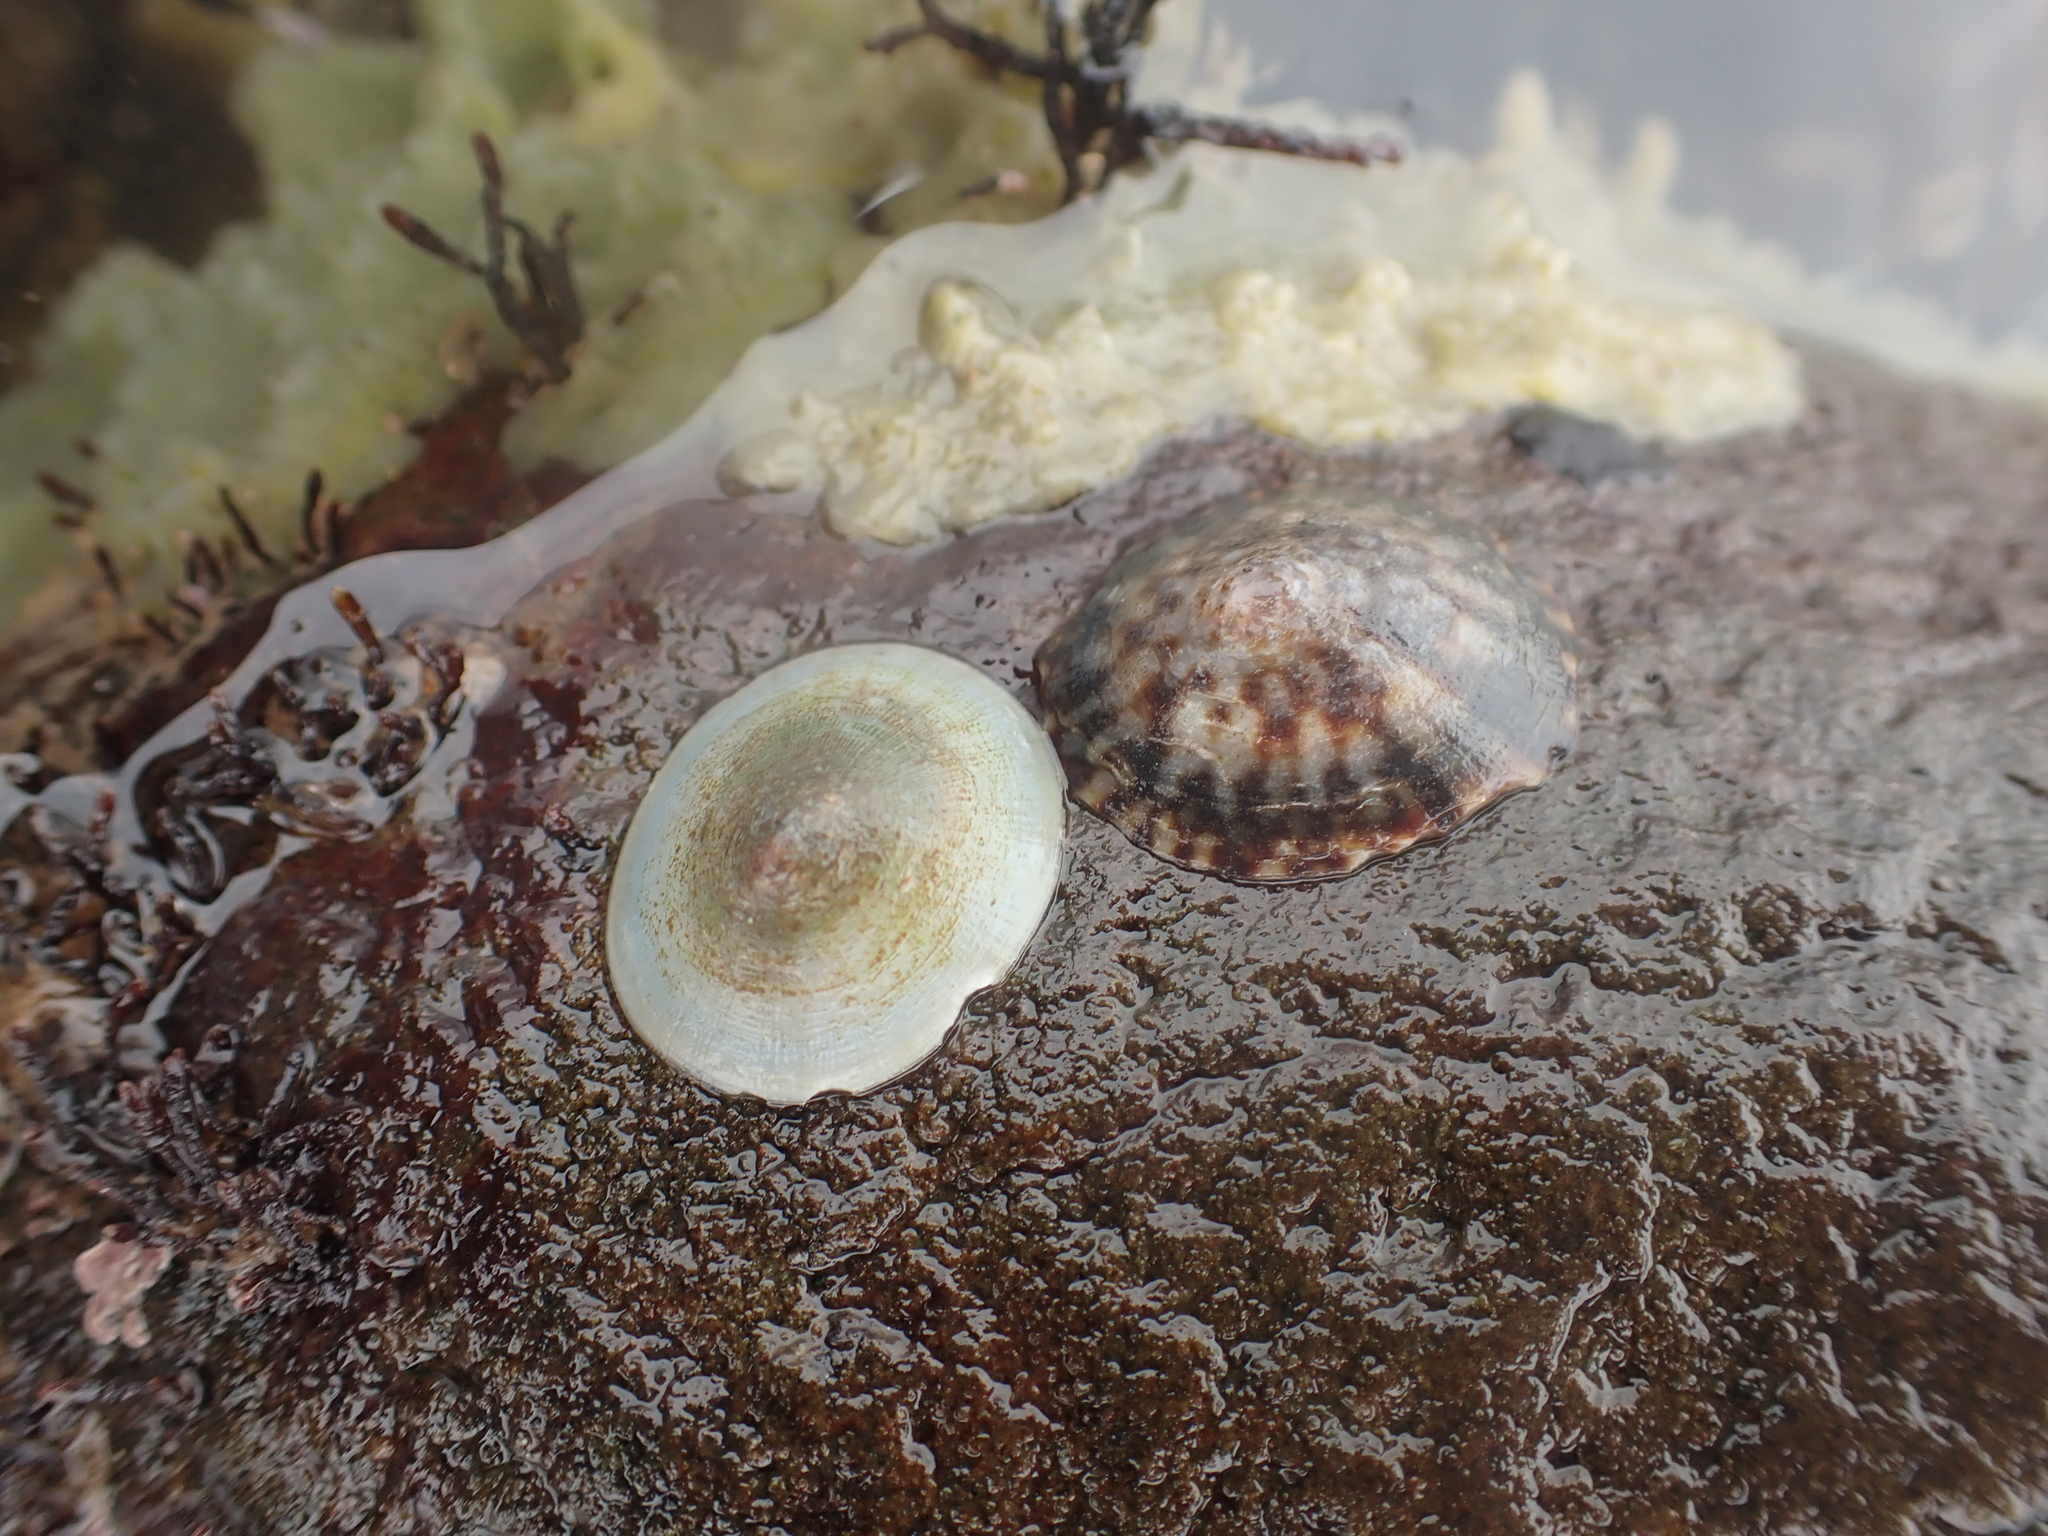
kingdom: Animalia
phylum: Mollusca
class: Gastropoda
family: Lottiidae
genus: Testudinalia
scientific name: Testudinalia testudinalis
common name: Common tortoiseshell limpet
